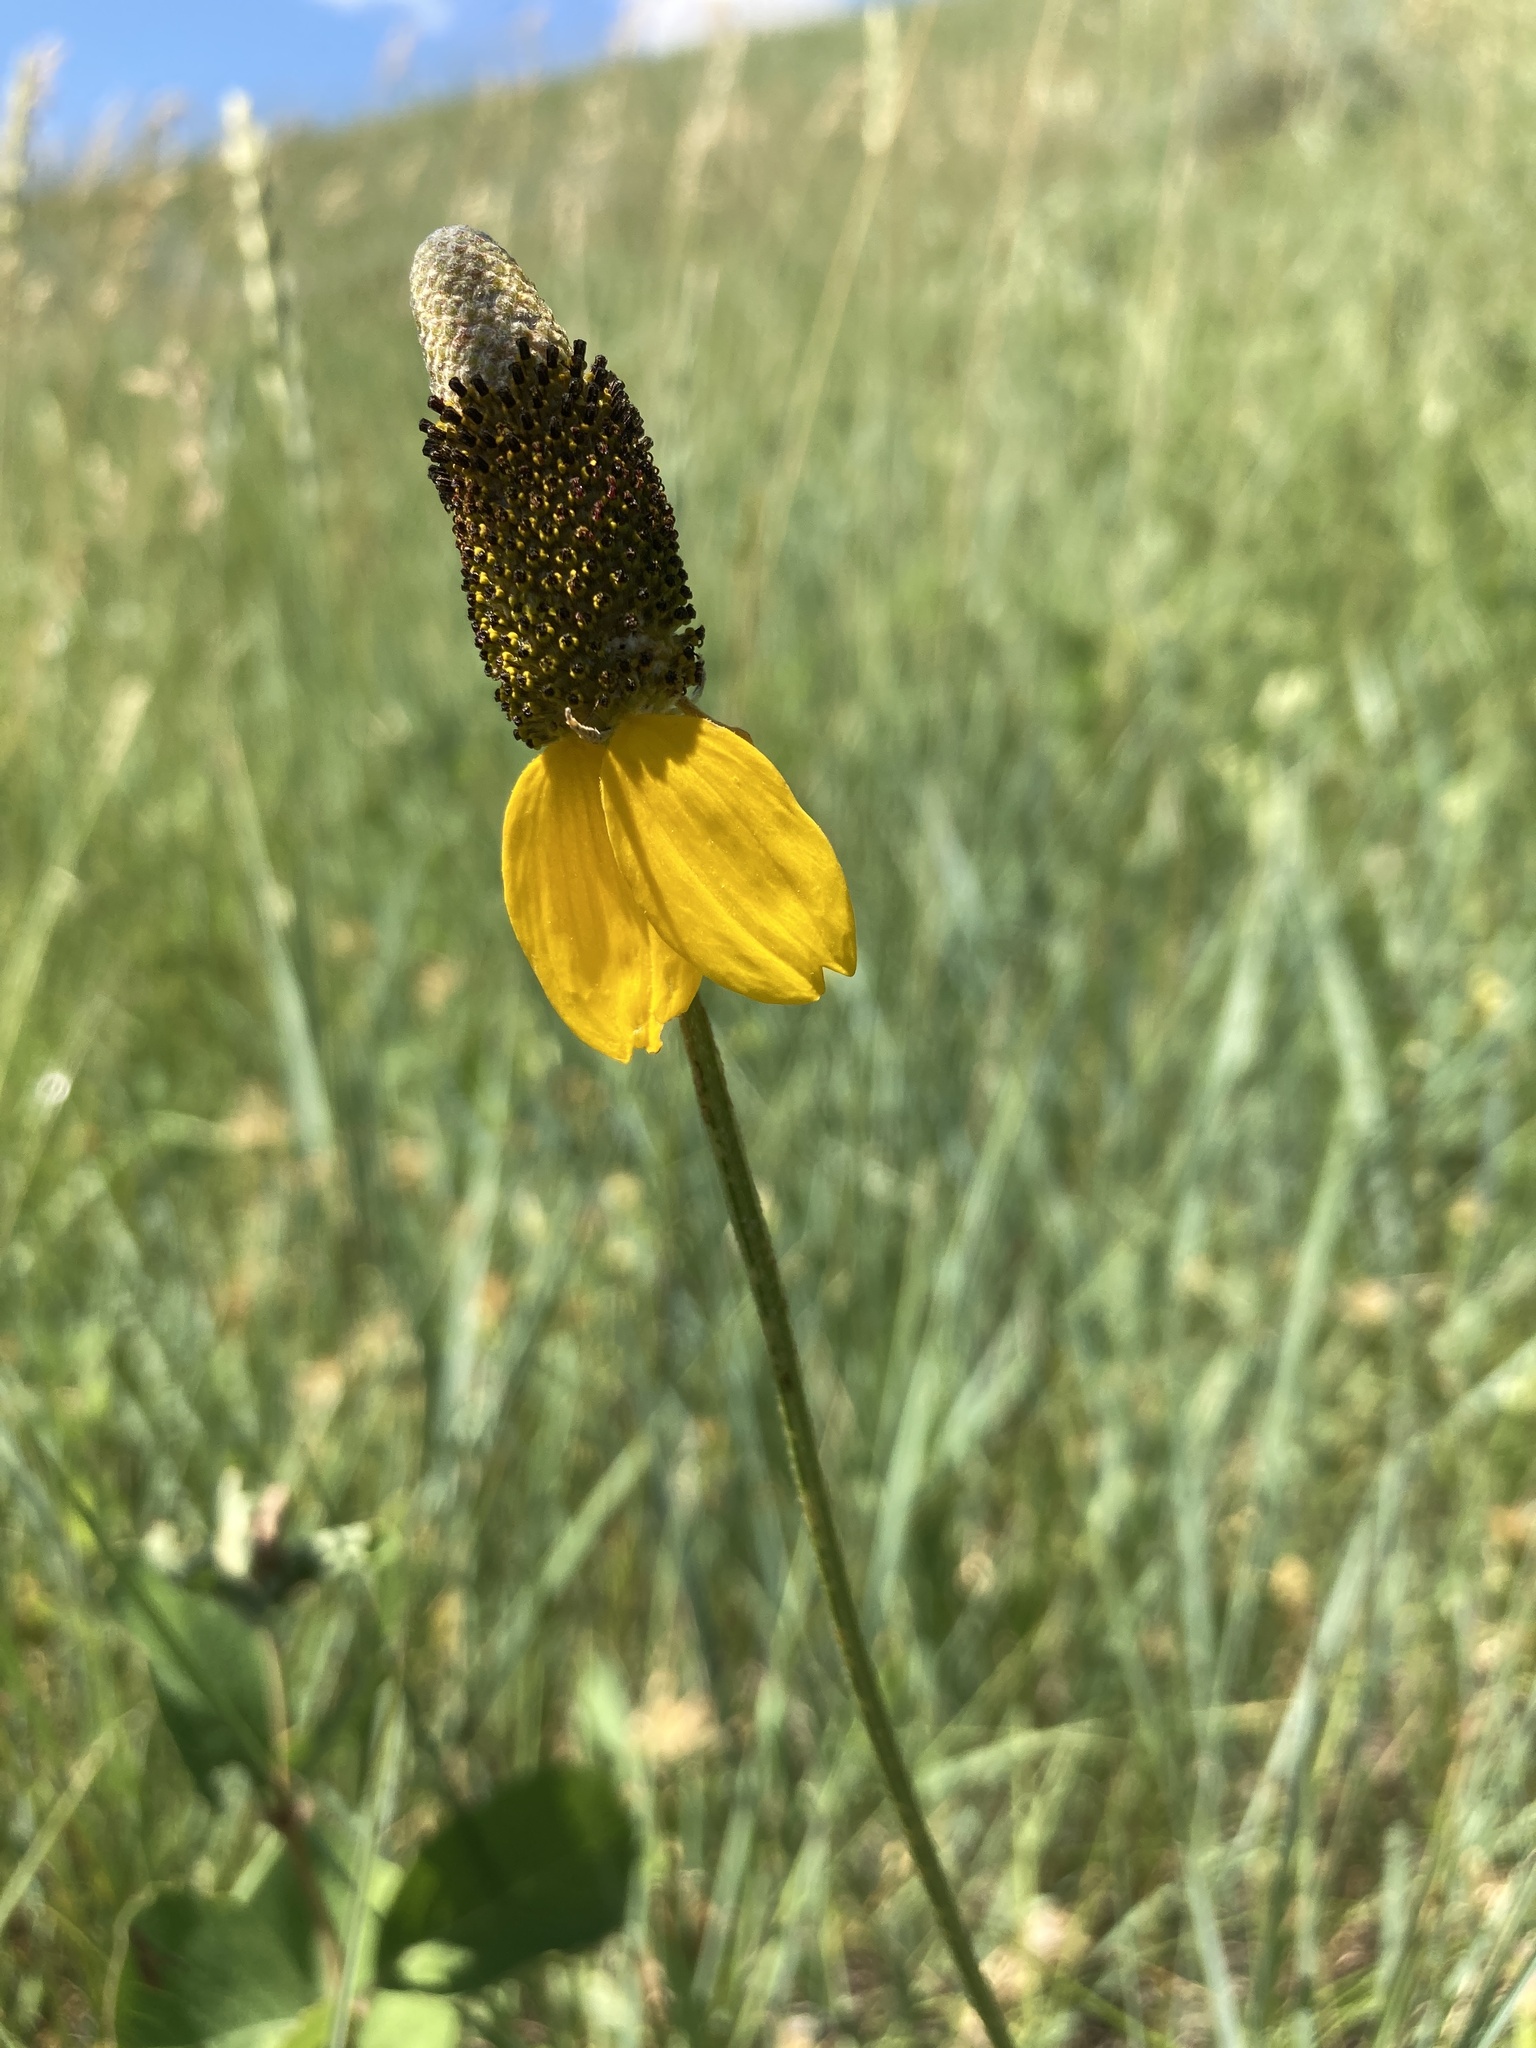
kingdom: Plantae
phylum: Tracheophyta
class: Magnoliopsida
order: Asterales
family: Asteraceae
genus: Ratibida
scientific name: Ratibida columnifera
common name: Prairie coneflower
